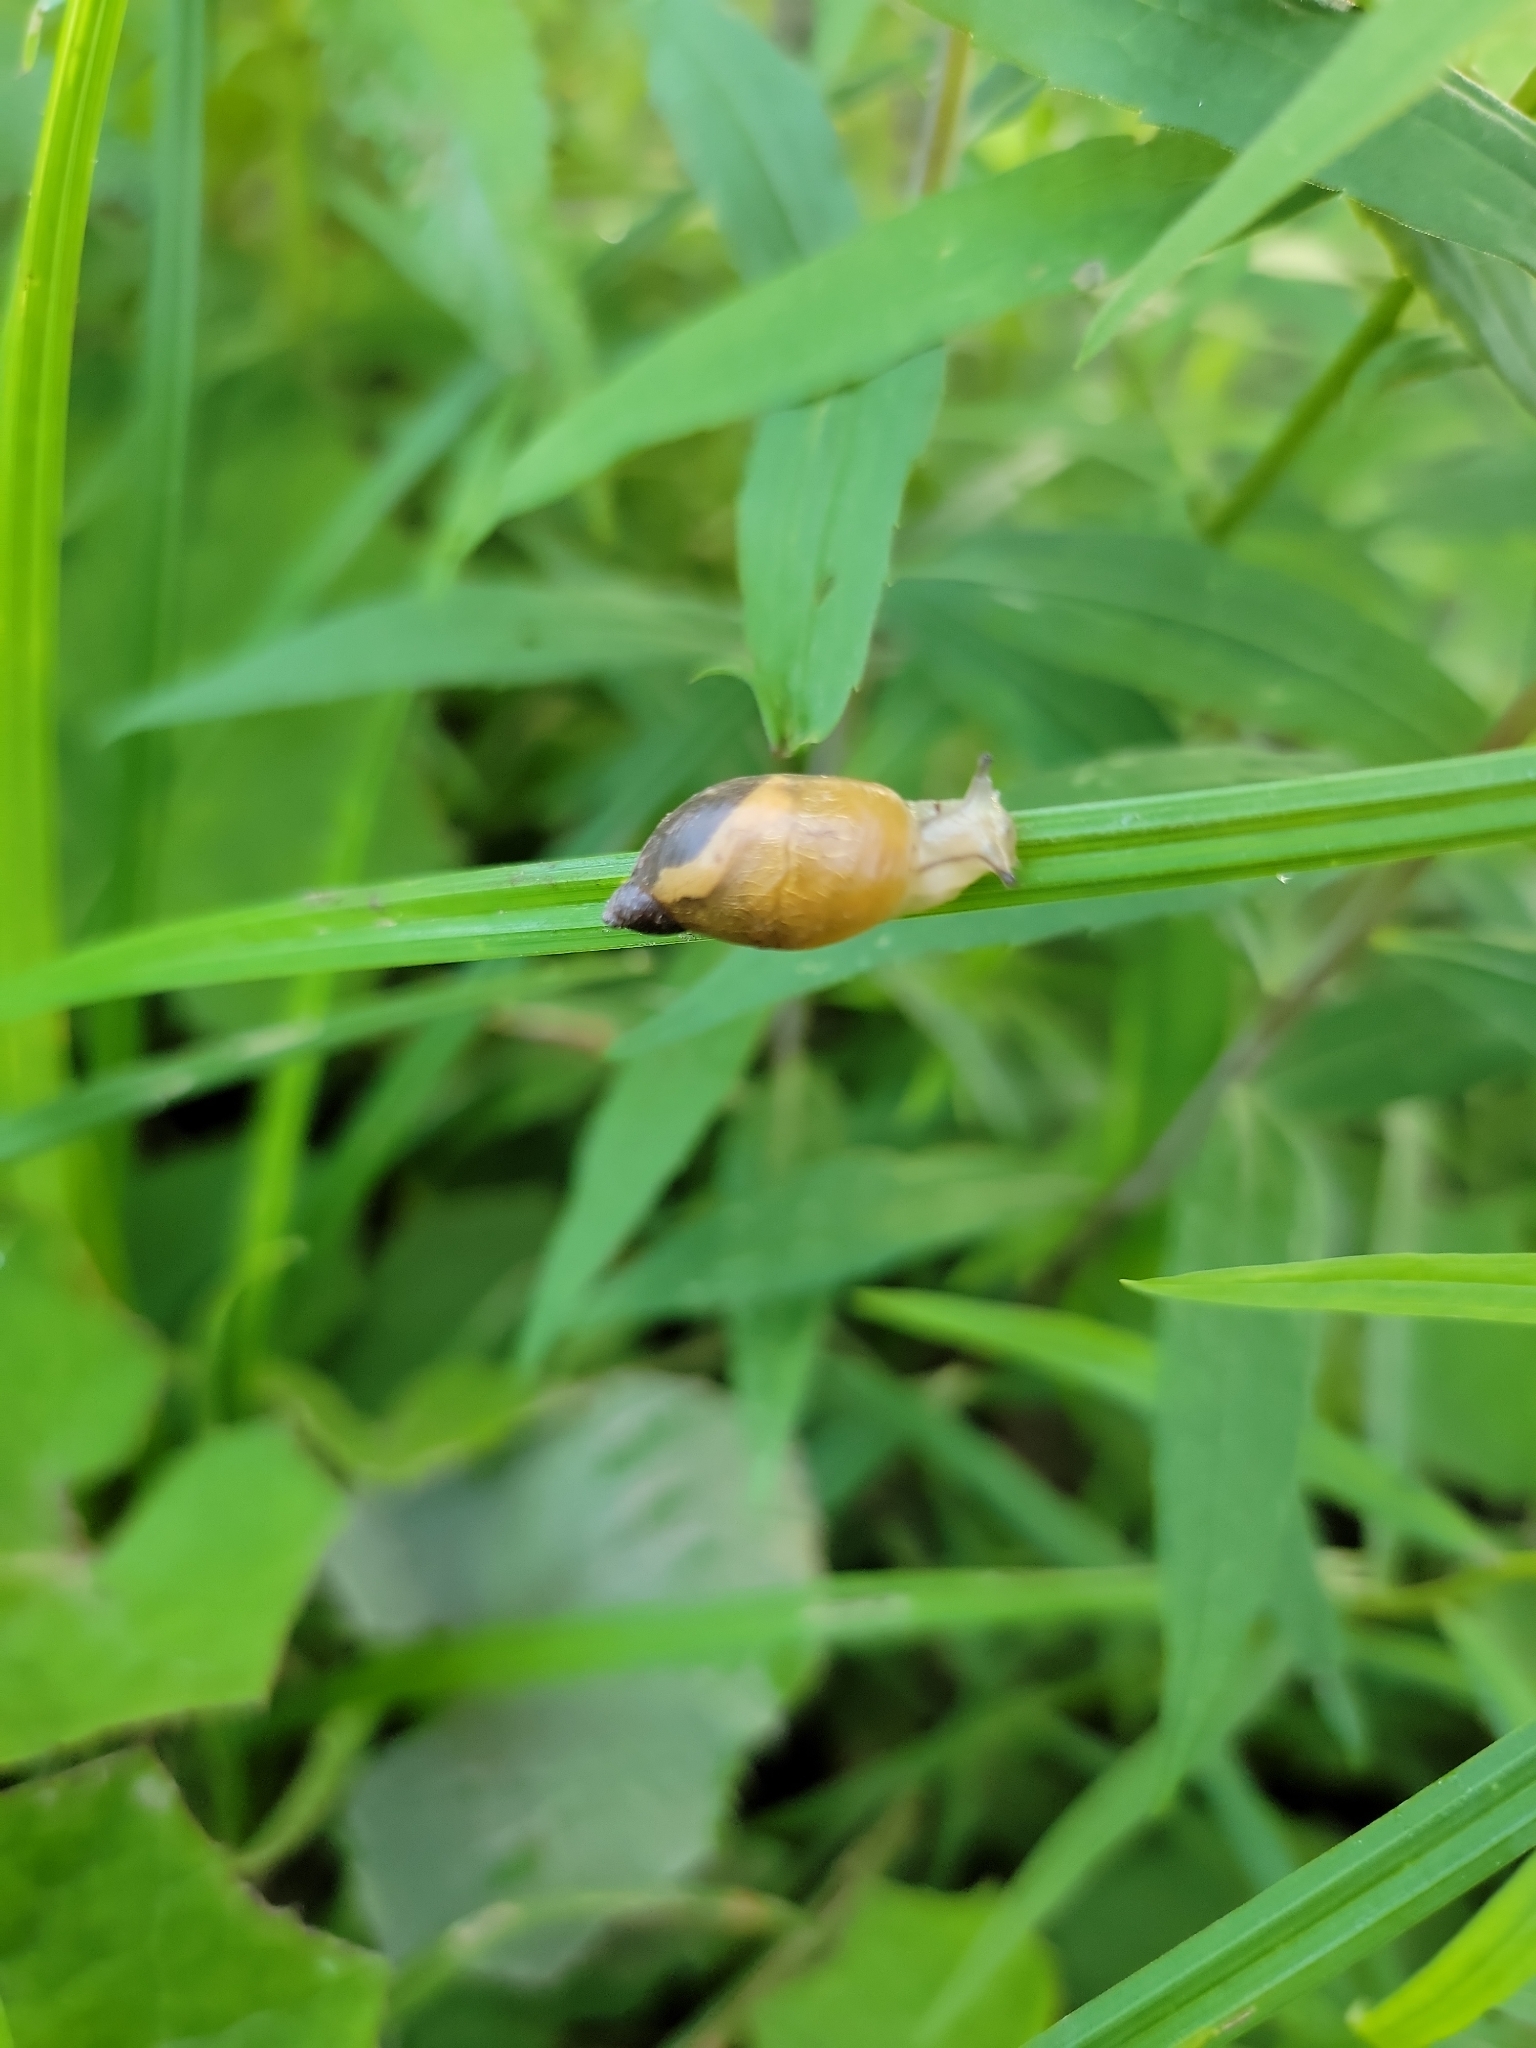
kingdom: Animalia
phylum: Mollusca
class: Gastropoda
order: Stylommatophora
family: Succineidae
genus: Succinea
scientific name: Succinea
